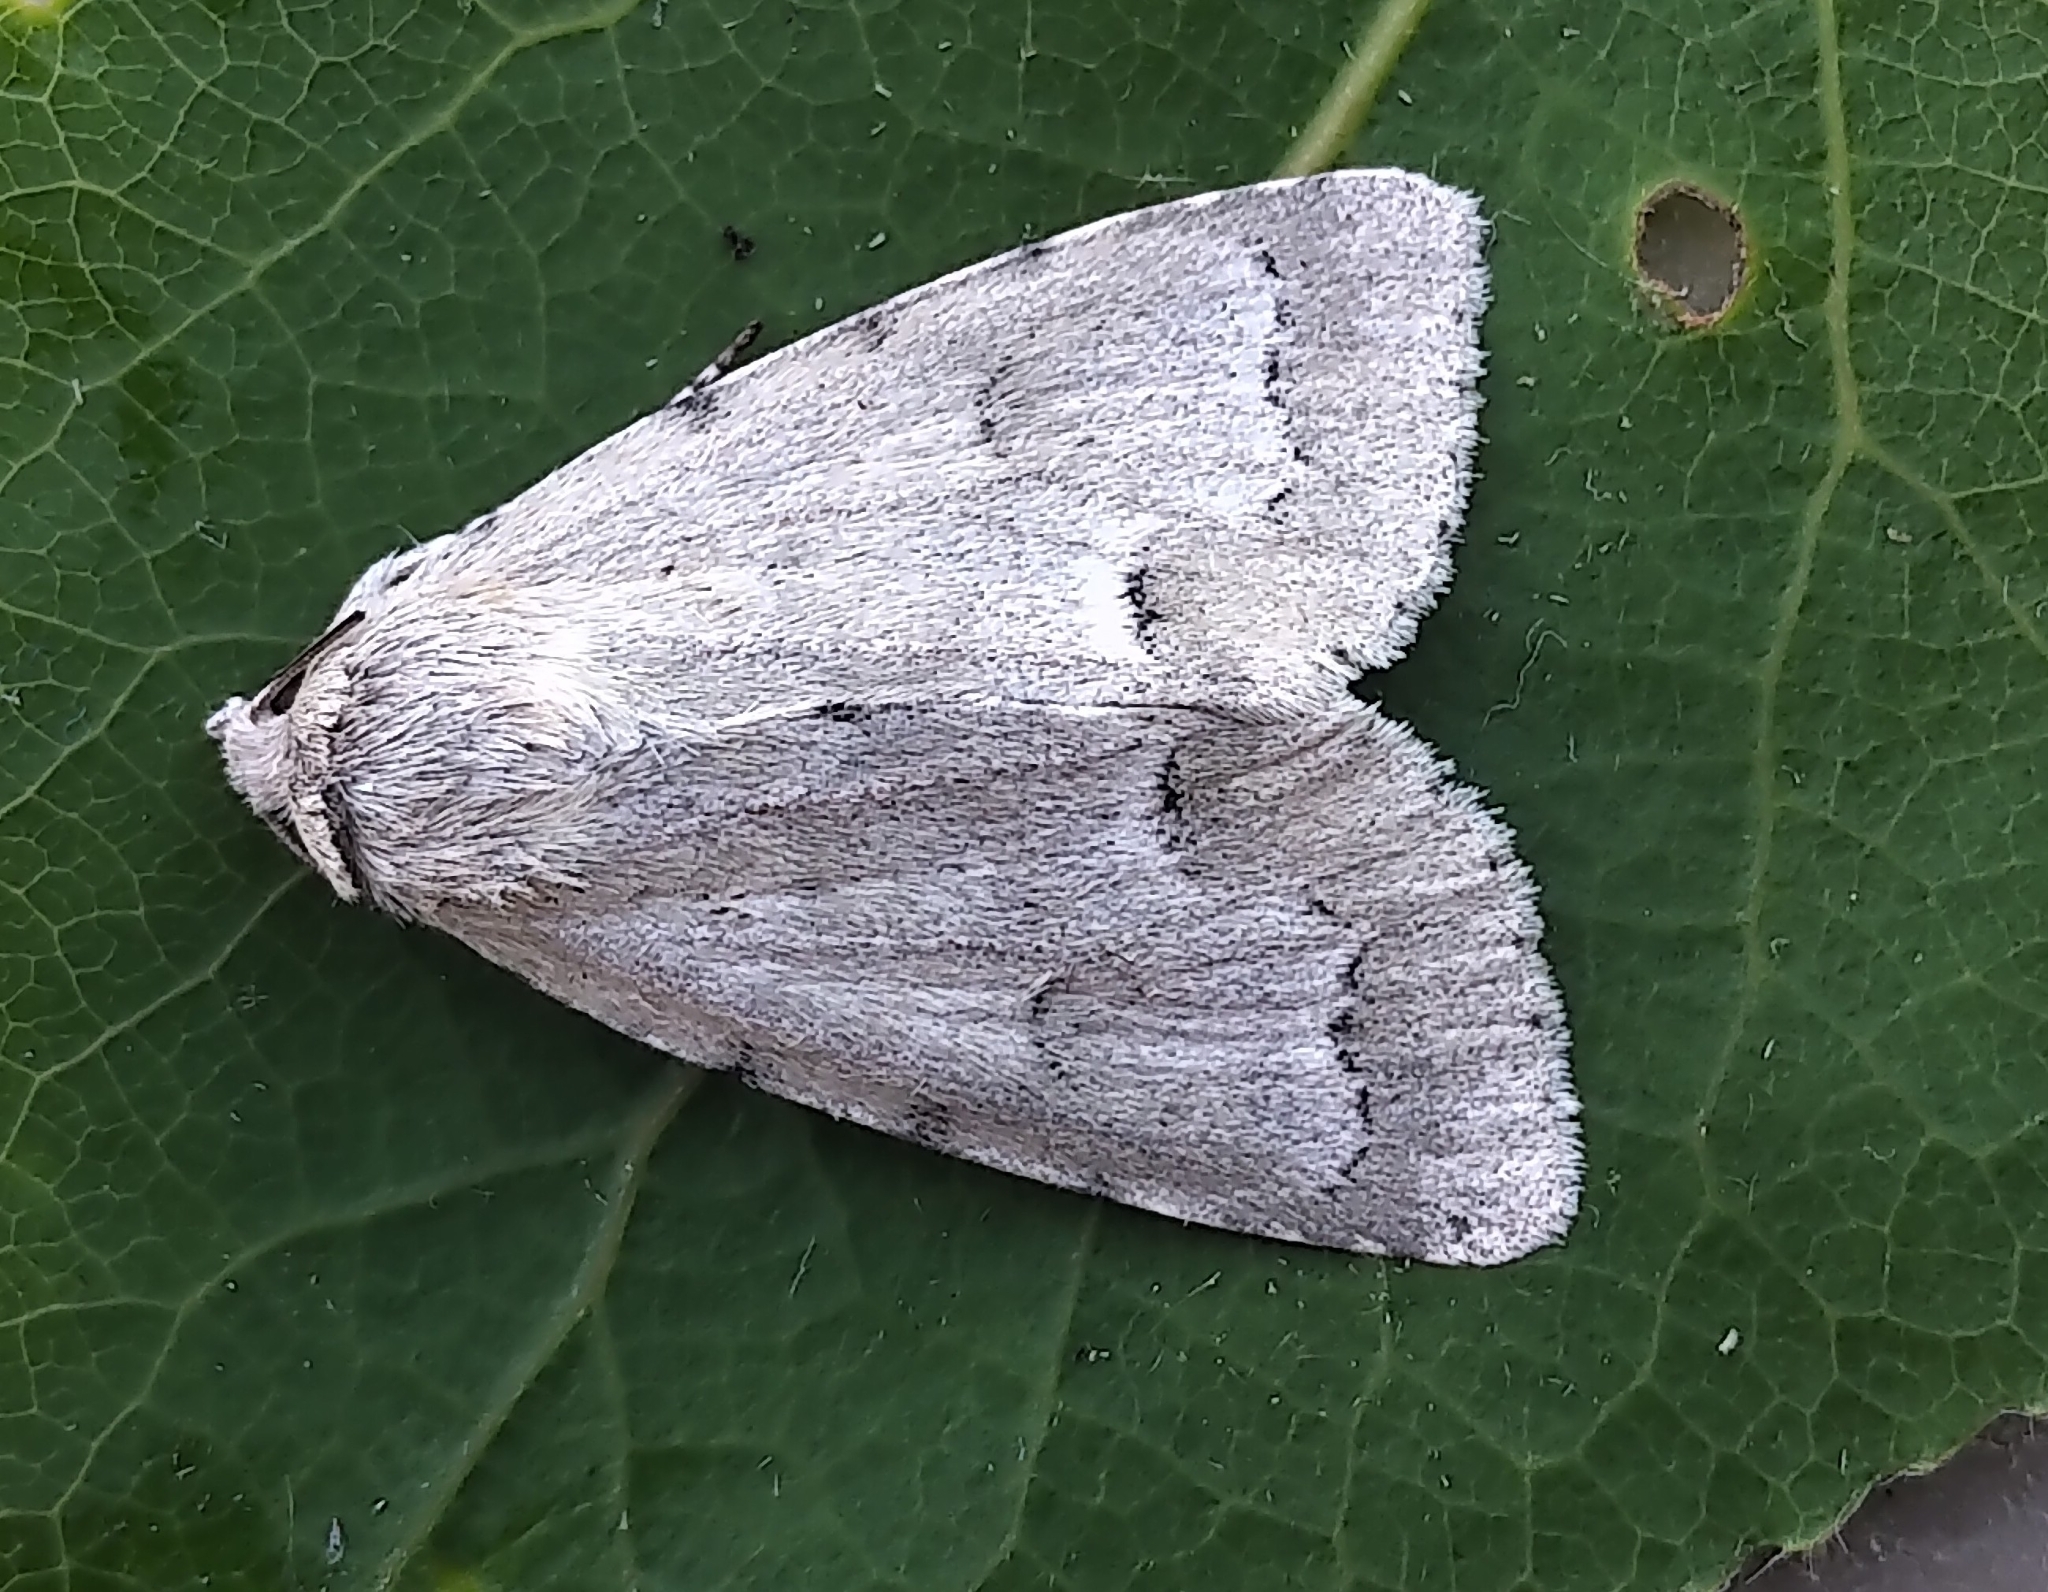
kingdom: Animalia
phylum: Arthropoda
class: Insecta
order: Lepidoptera
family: Noctuidae
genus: Acronicta
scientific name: Acronicta innotata
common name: Unmarked dagger
